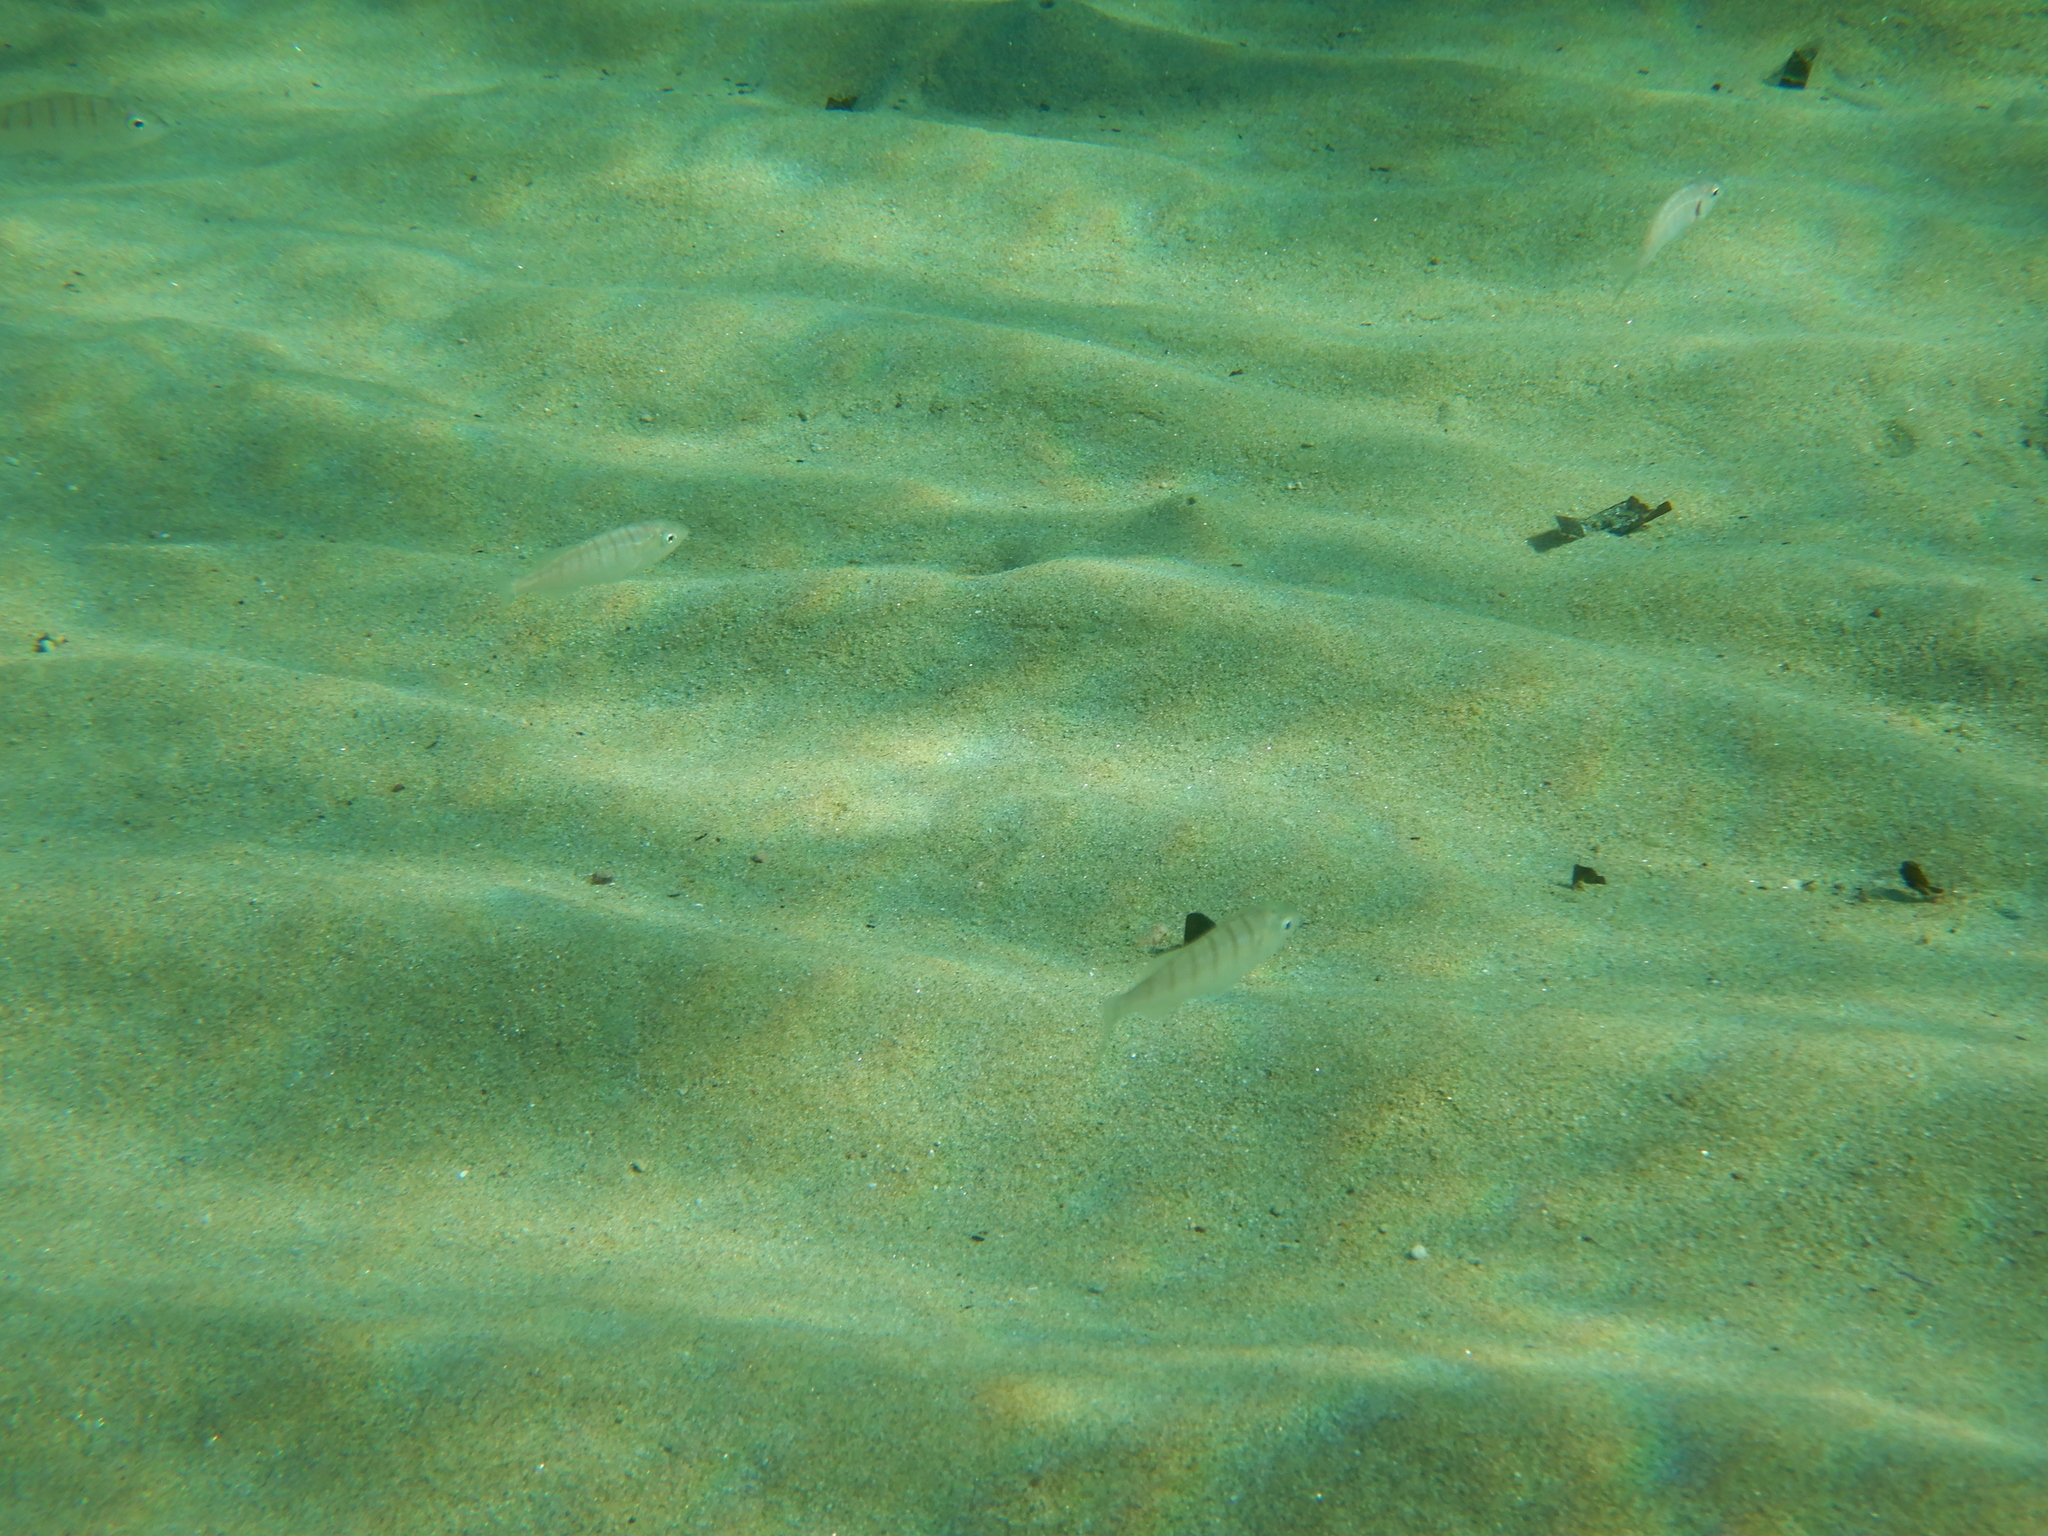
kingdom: Animalia
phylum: Chordata
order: Perciformes
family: Sparidae
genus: Lithognathus
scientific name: Lithognathus mormyrus
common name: Sand steenbras
